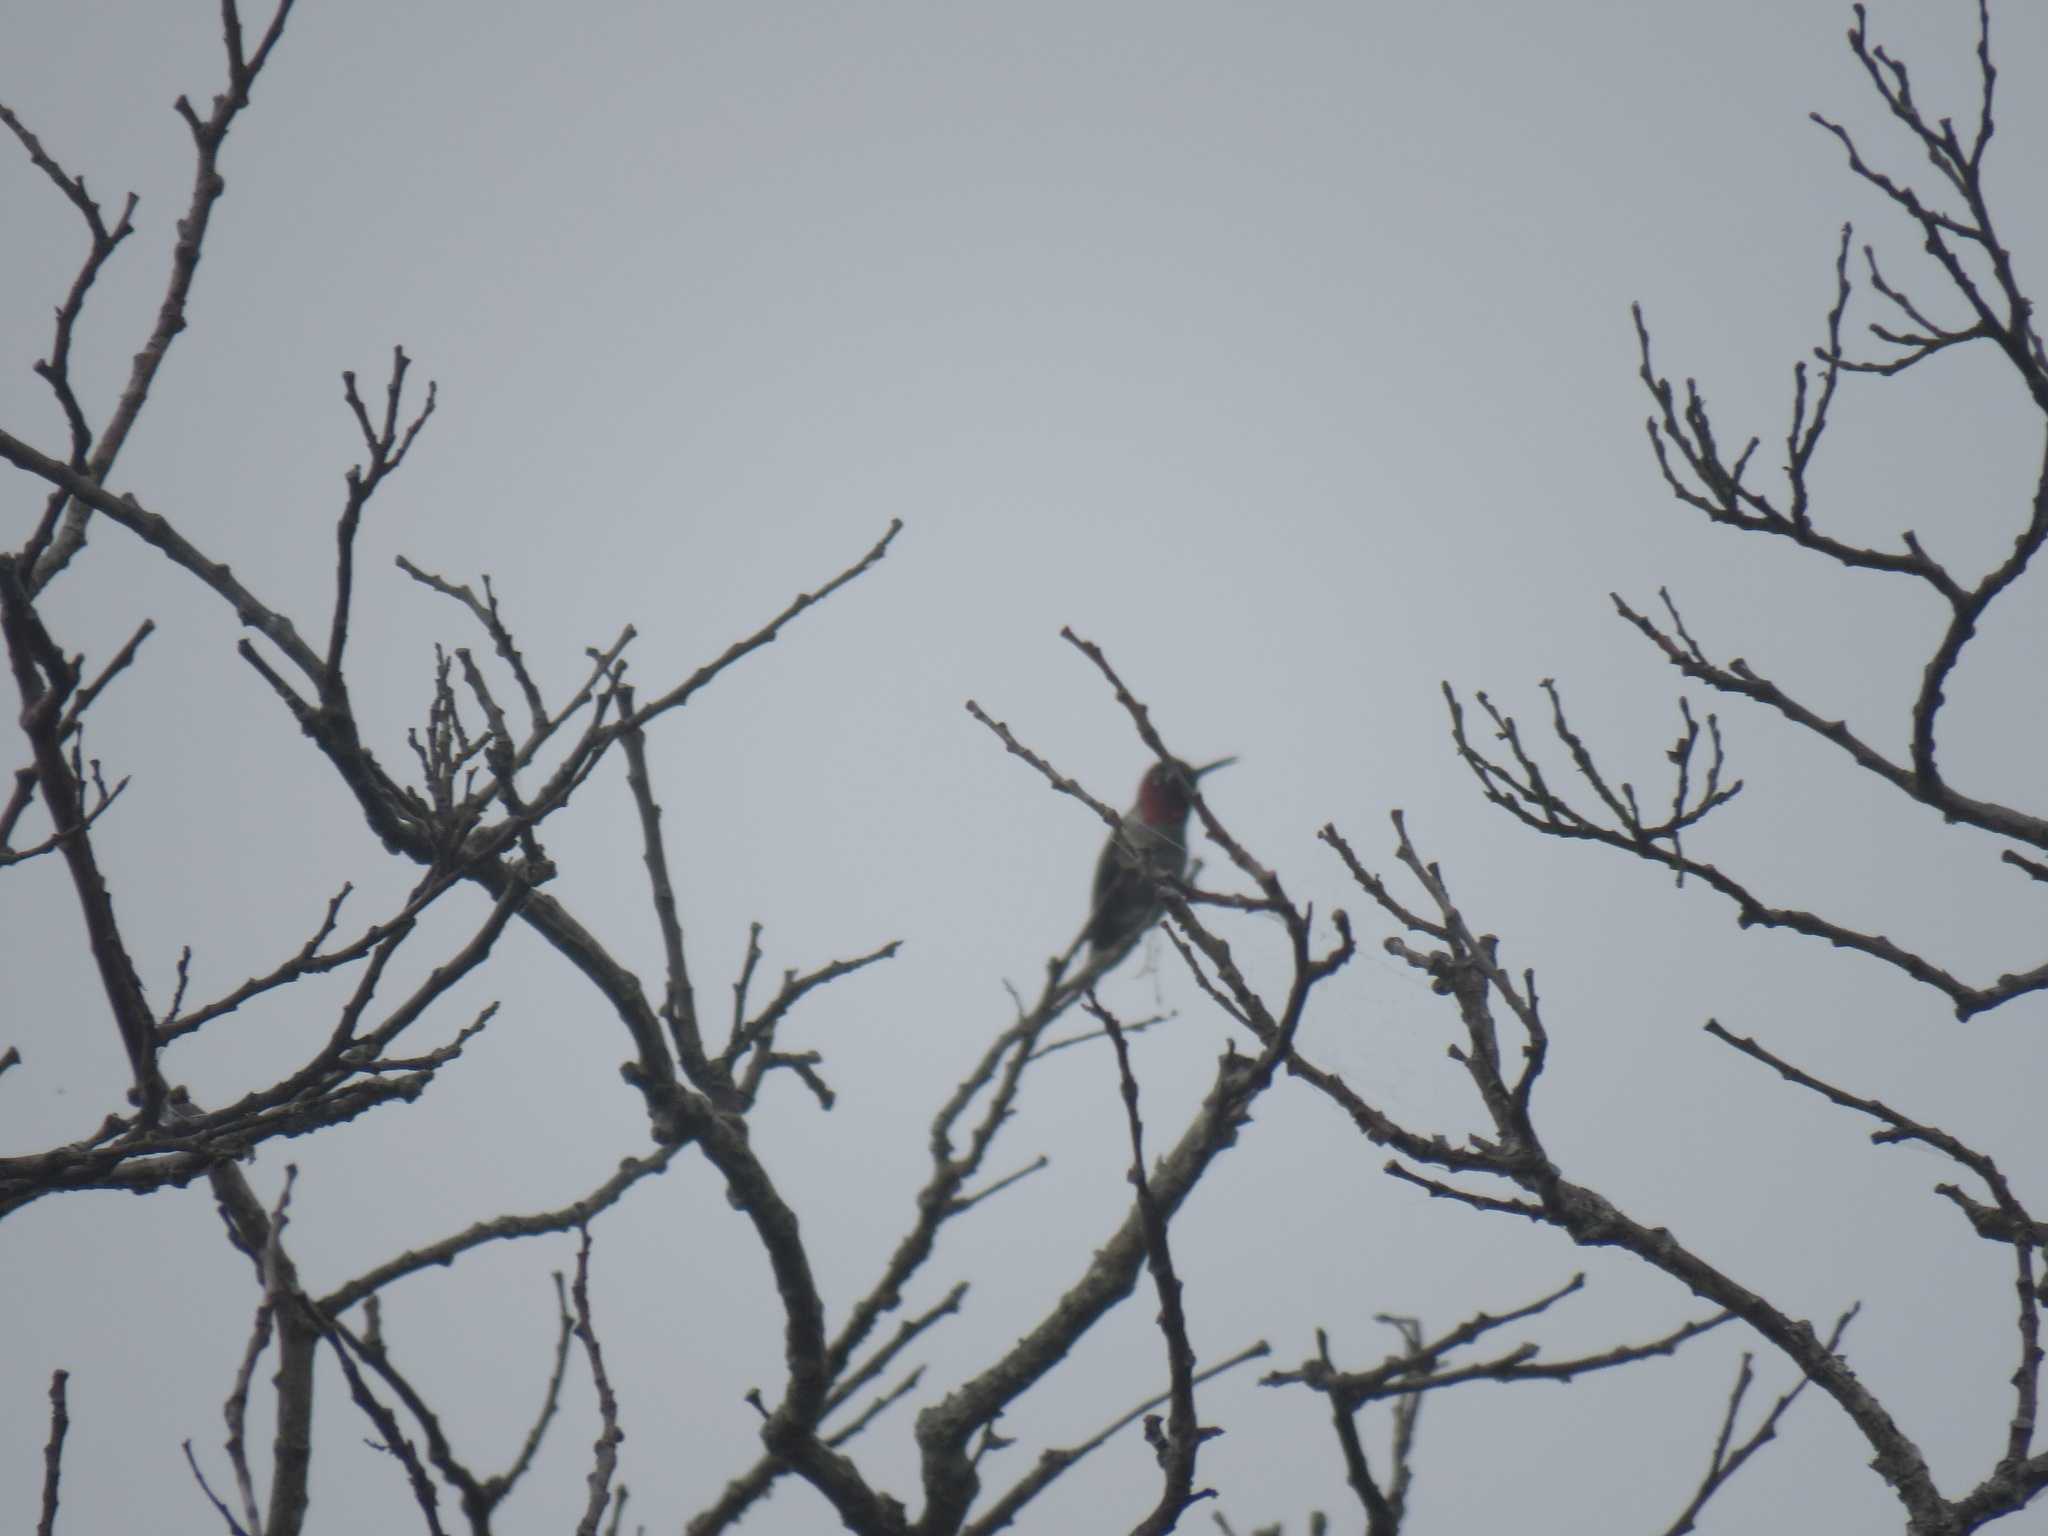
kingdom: Animalia
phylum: Chordata
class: Aves
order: Apodiformes
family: Trochilidae
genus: Calypte
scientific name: Calypte anna
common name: Anna's hummingbird
